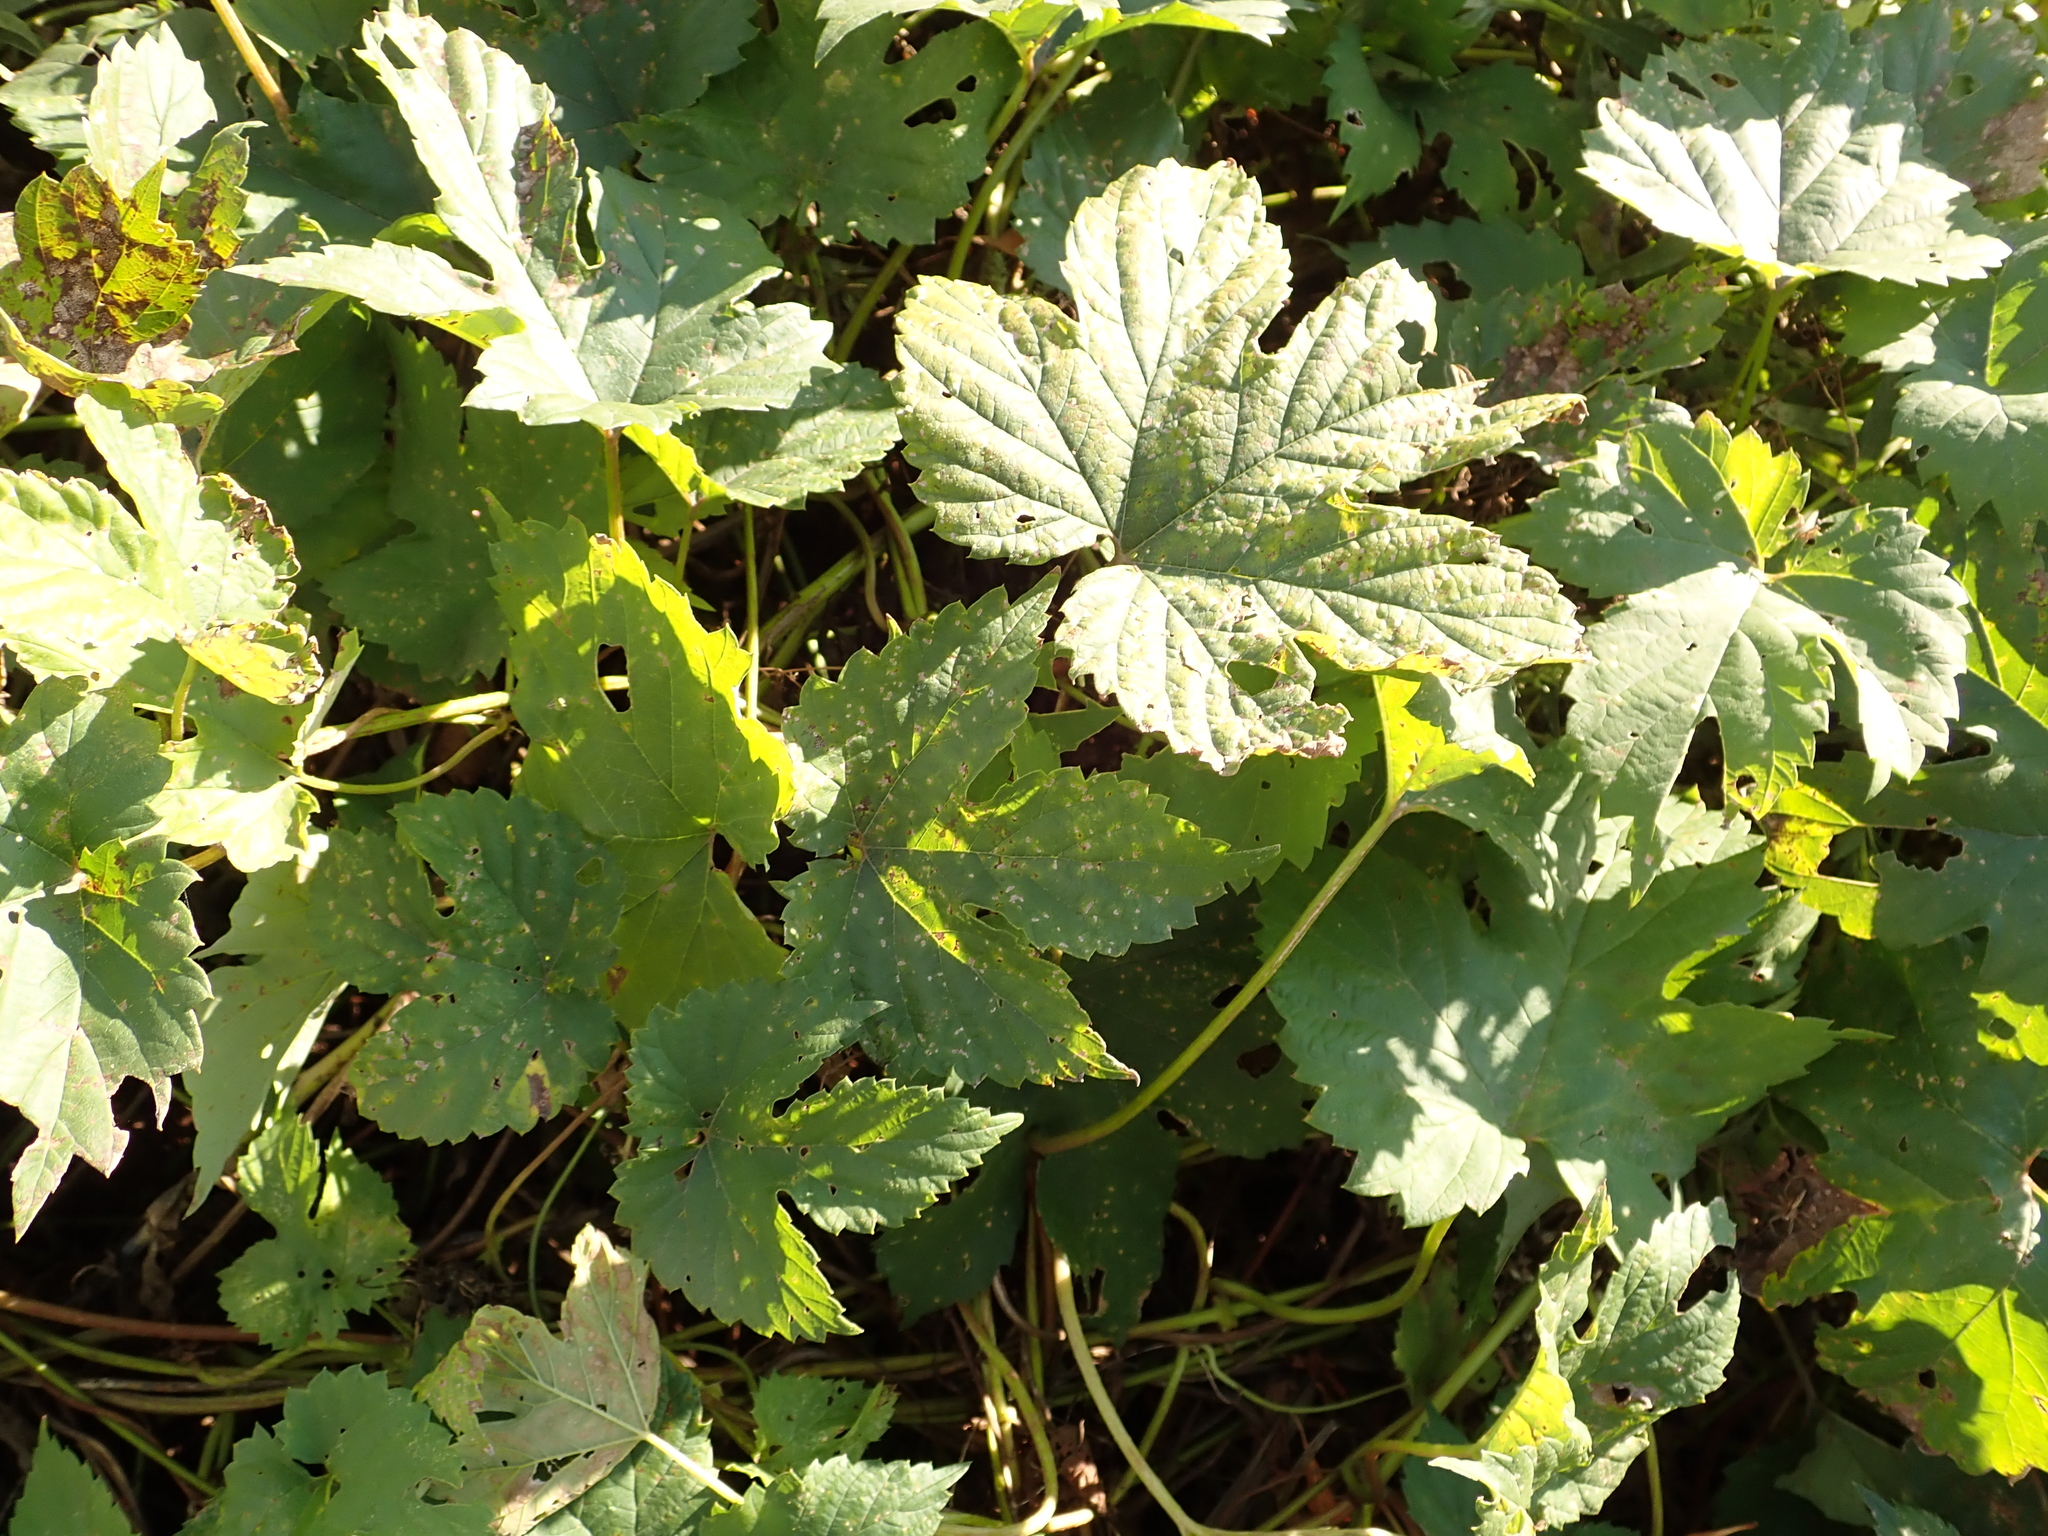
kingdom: Plantae
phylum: Tracheophyta
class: Magnoliopsida
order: Rosales
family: Cannabaceae
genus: Humulus
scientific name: Humulus lupulus
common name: Hop
